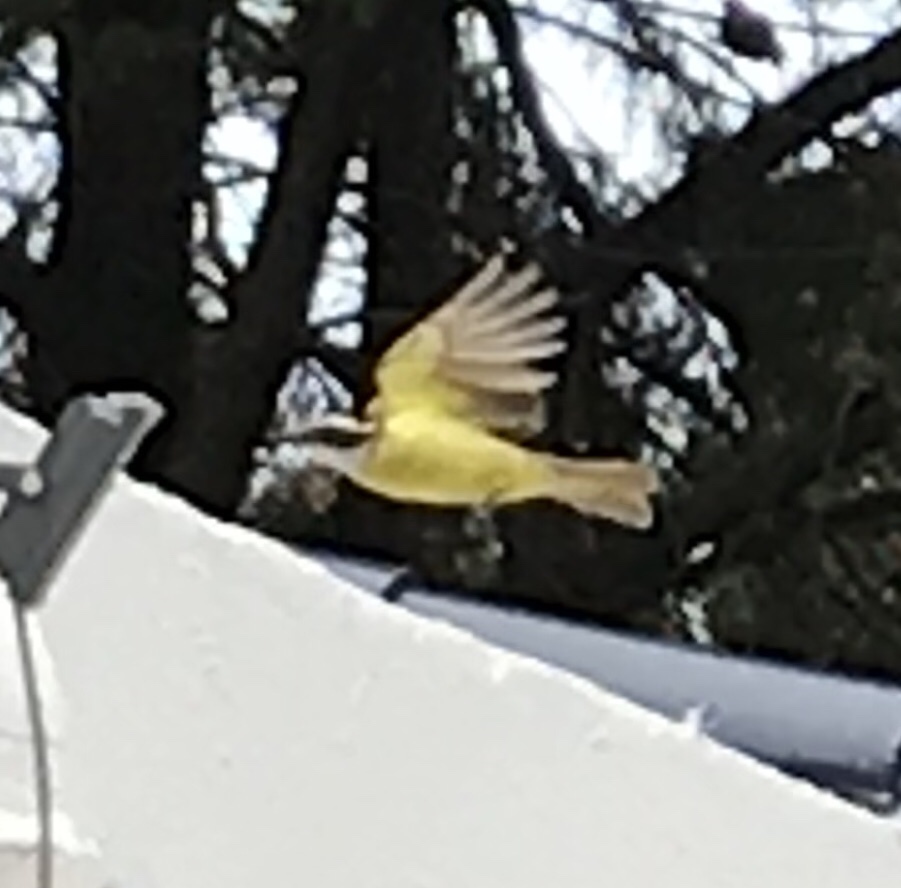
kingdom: Animalia
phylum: Chordata
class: Aves
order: Passeriformes
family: Tyrannidae
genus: Pitangus
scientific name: Pitangus sulphuratus
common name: Great kiskadee
